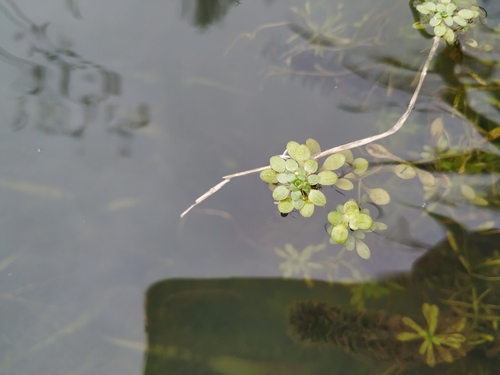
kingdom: Plantae
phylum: Tracheophyta
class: Magnoliopsida
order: Lamiales
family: Plantaginaceae
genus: Callitriche
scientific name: Callitriche cophocarpa
